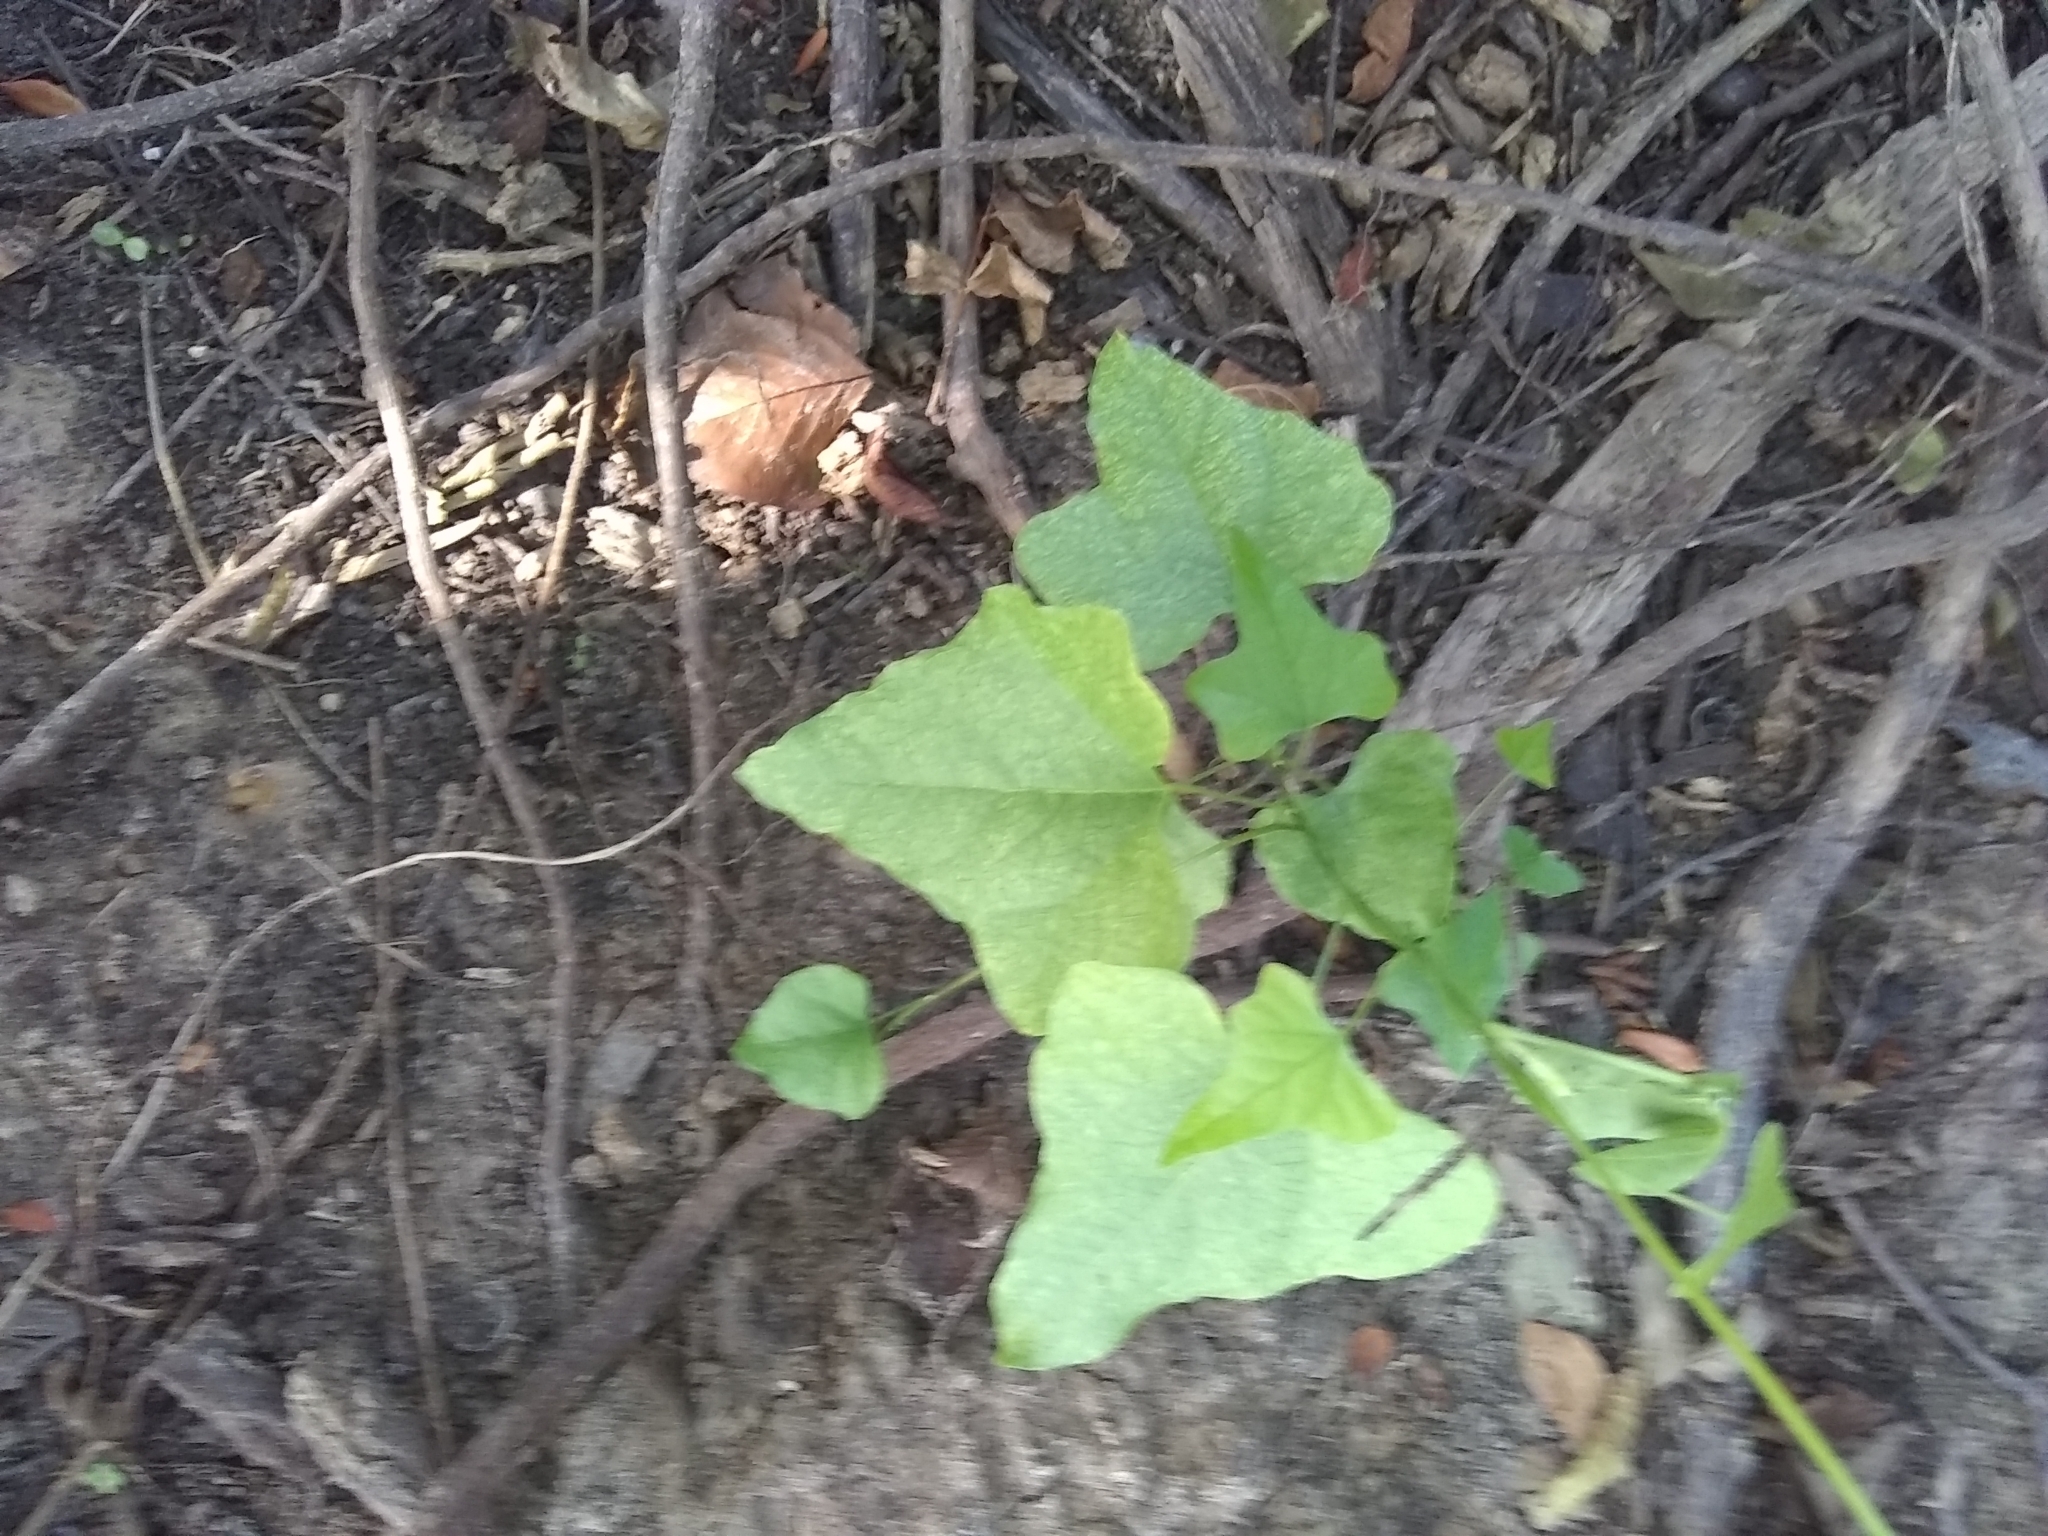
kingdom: Plantae
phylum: Tracheophyta
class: Magnoliopsida
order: Ranunculales
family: Menispermaceae
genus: Cocculus
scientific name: Cocculus carolinus
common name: Carolina moonseed
